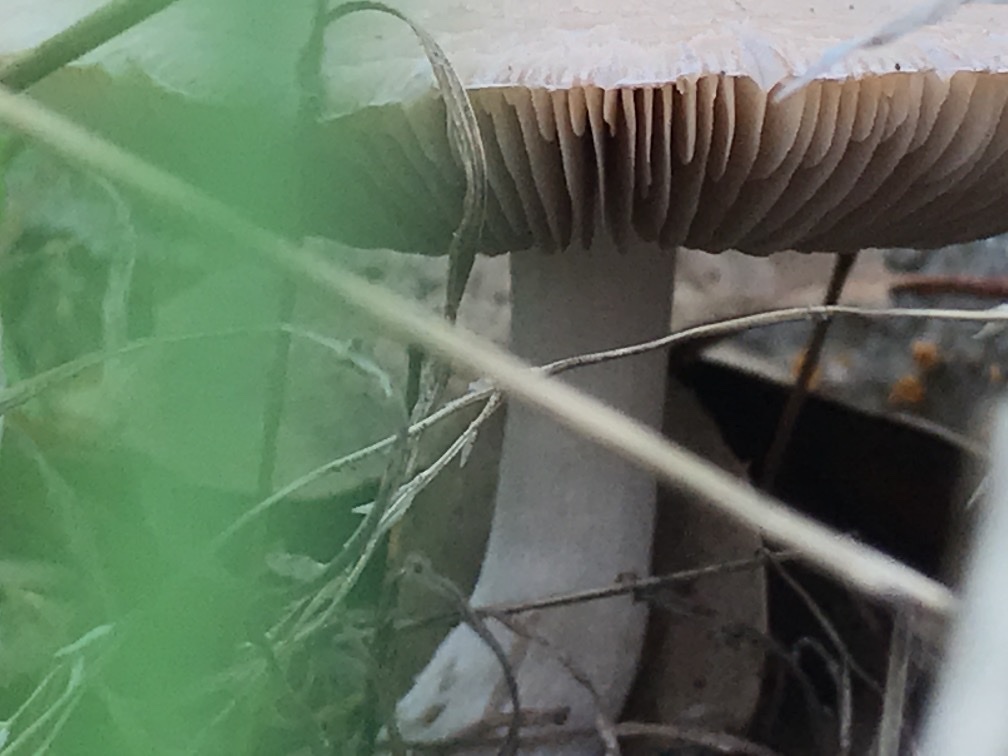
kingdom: Fungi
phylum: Basidiomycota
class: Agaricomycetes
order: Agaricales
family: Pluteaceae
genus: Volvopluteus
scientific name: Volvopluteus gloiocephalus
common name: Stubble rosegill
